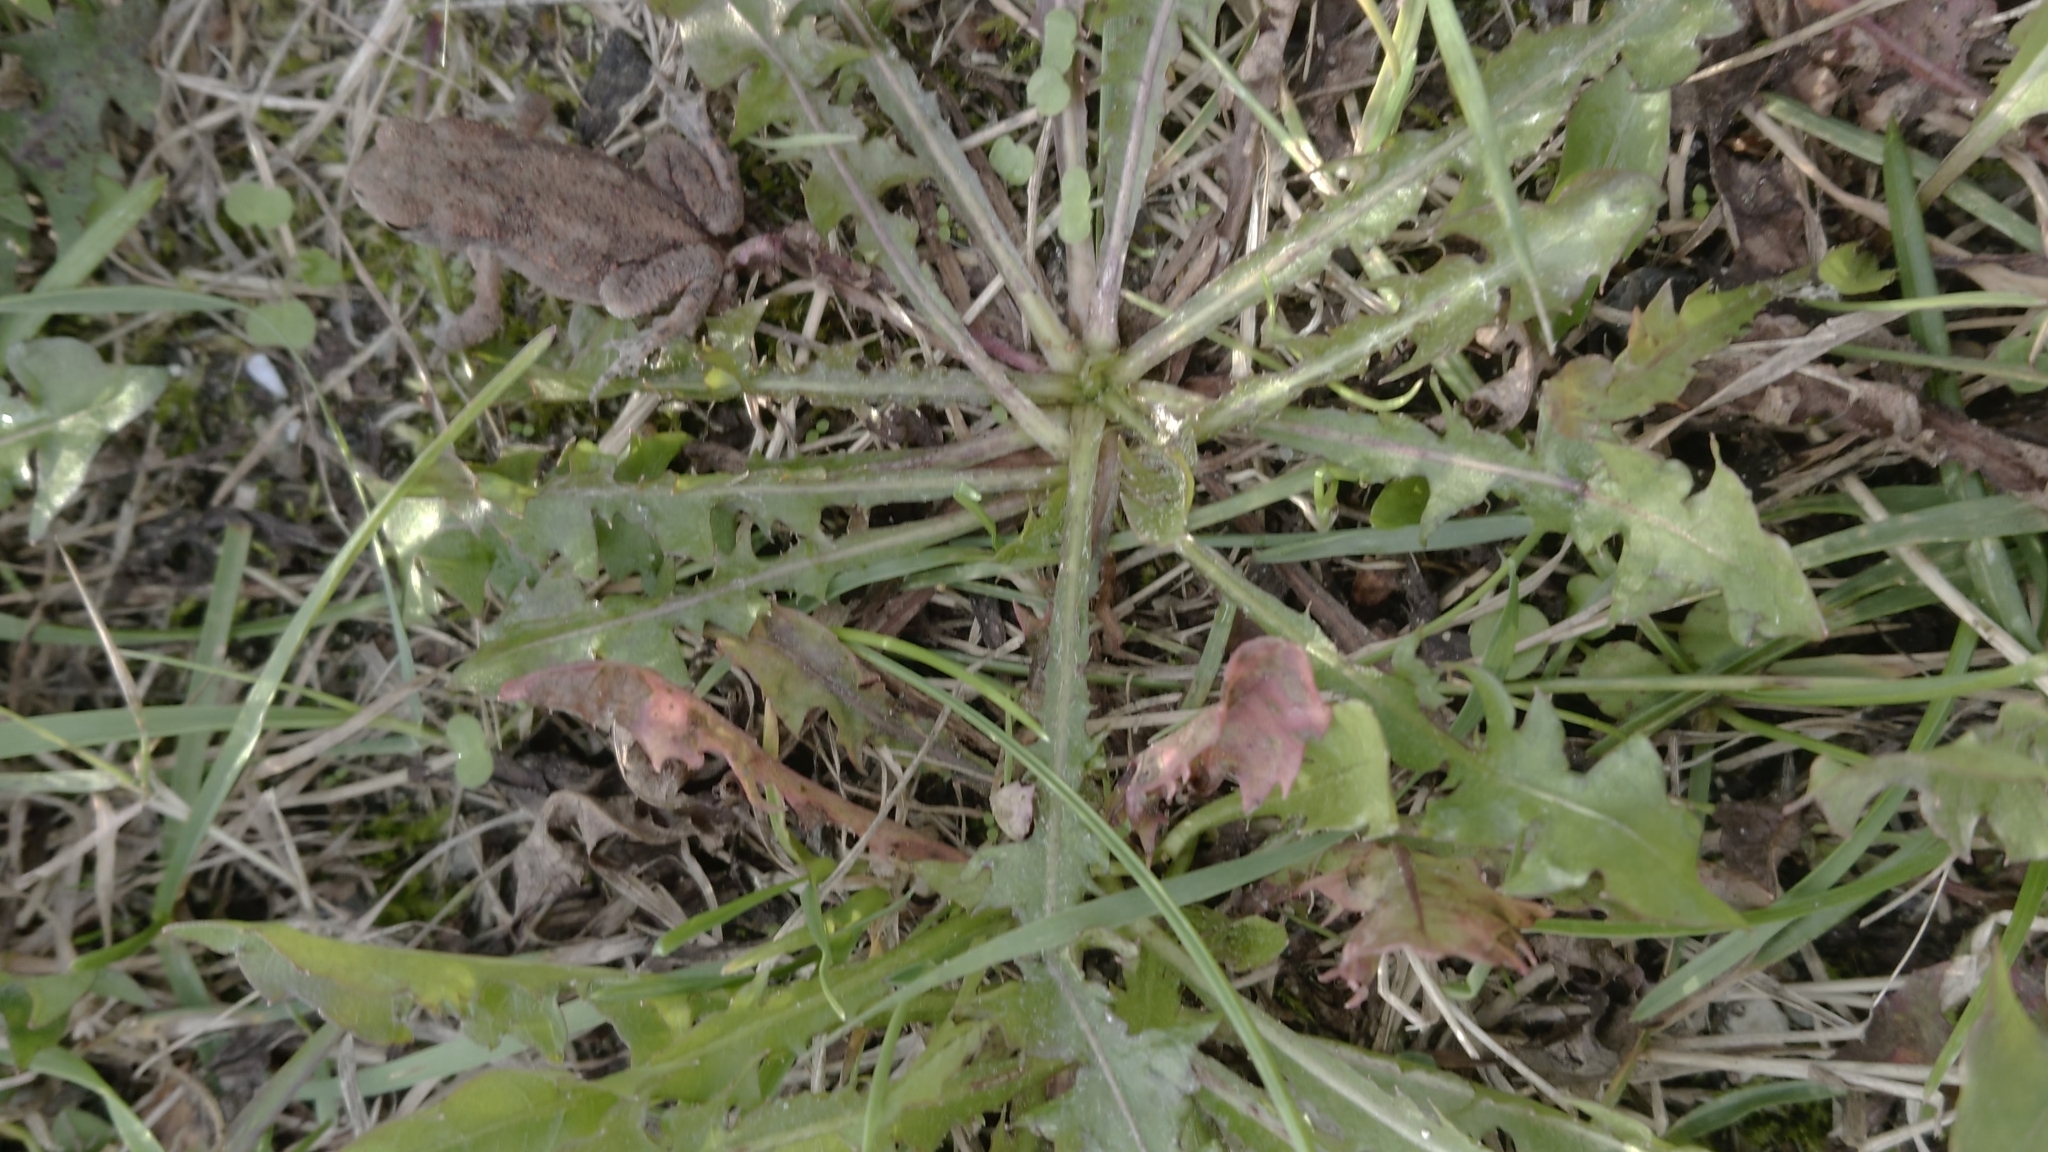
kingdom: Animalia
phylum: Chordata
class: Amphibia
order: Anura
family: Bufonidae
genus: Bufo
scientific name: Bufo bufo
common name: Common toad
